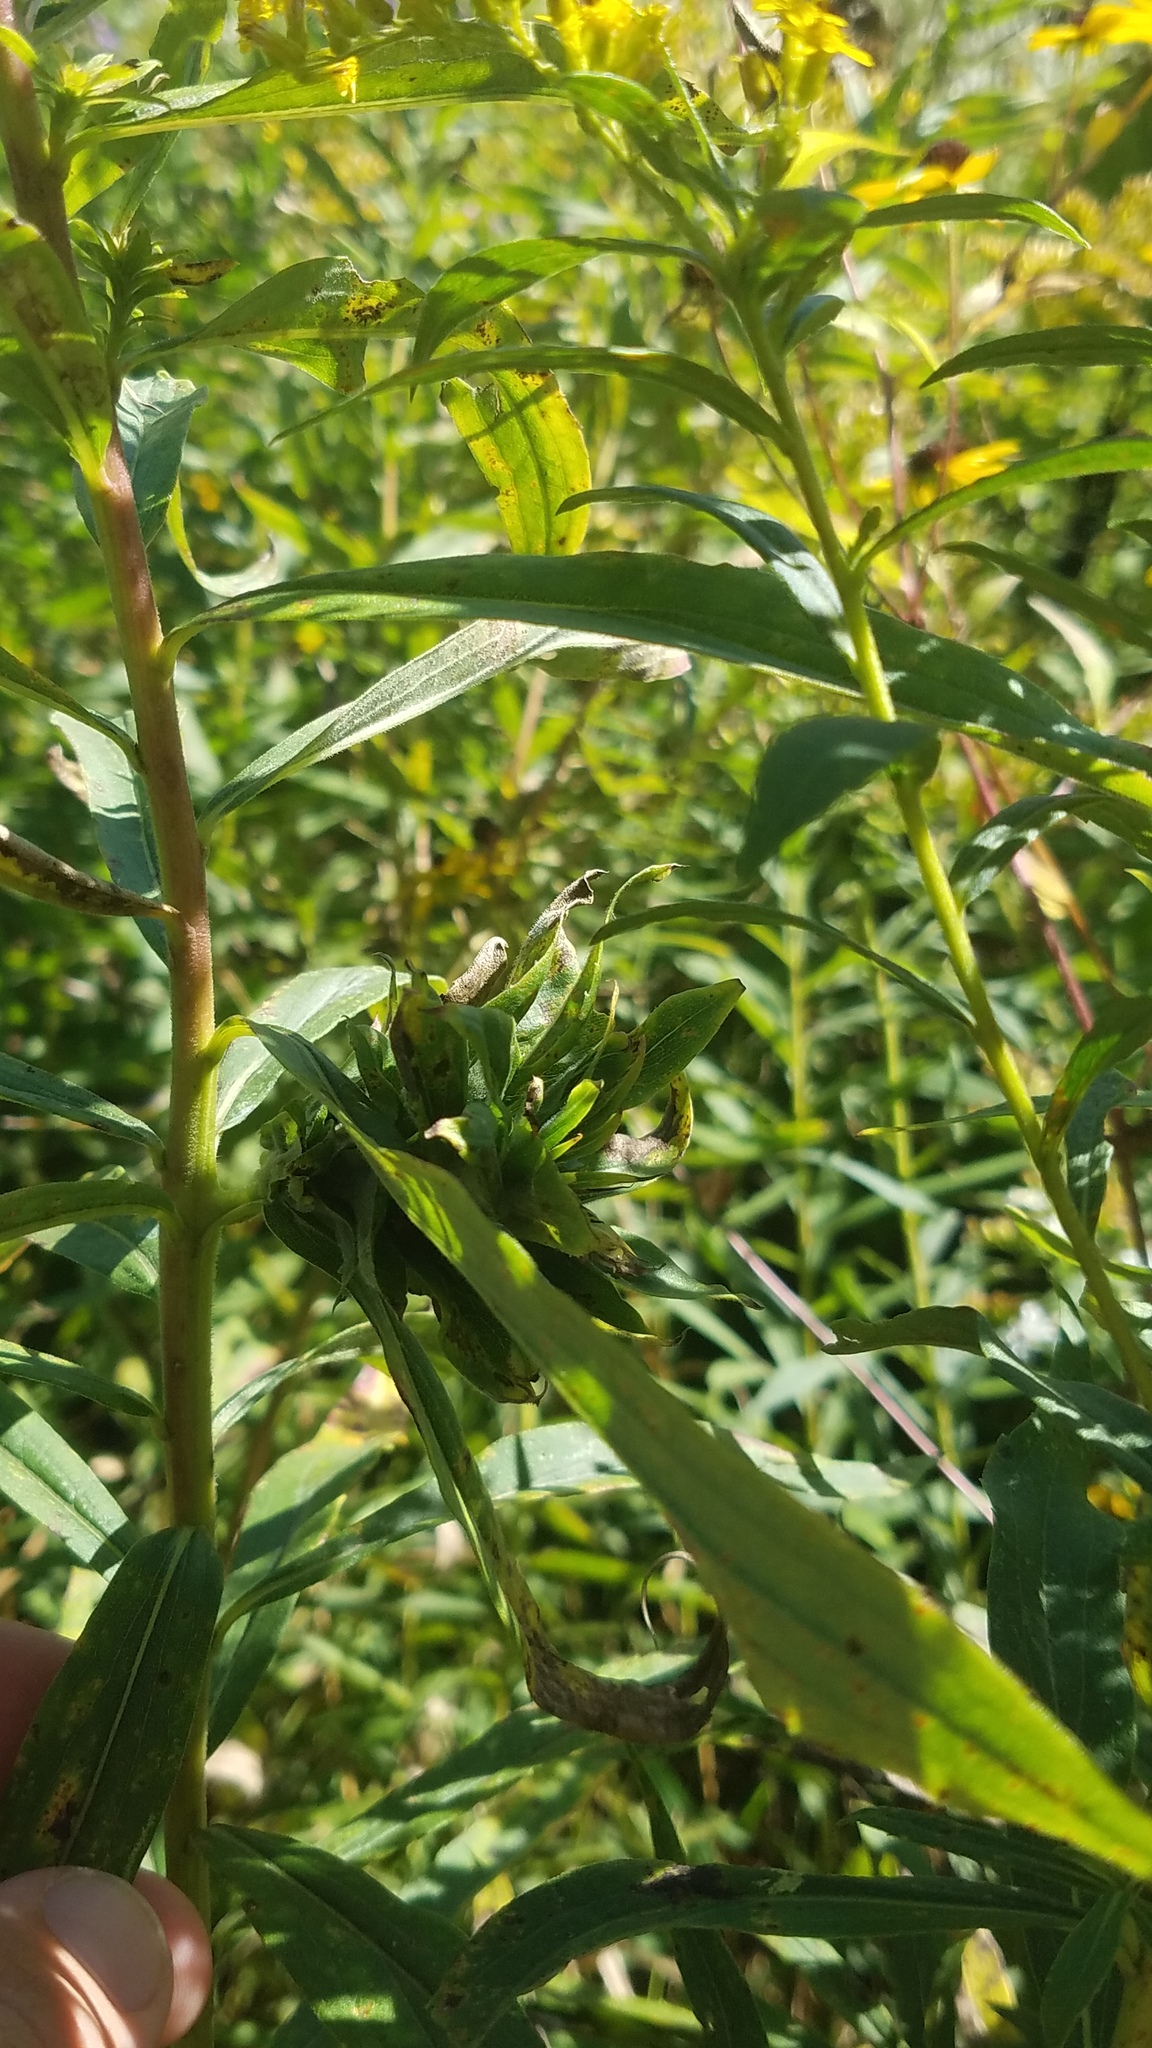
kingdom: Animalia
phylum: Arthropoda
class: Insecta
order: Diptera
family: Cecidomyiidae
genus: Rhopalomyia
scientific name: Rhopalomyia solidaginis
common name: Goldenrod bunch gall midge
